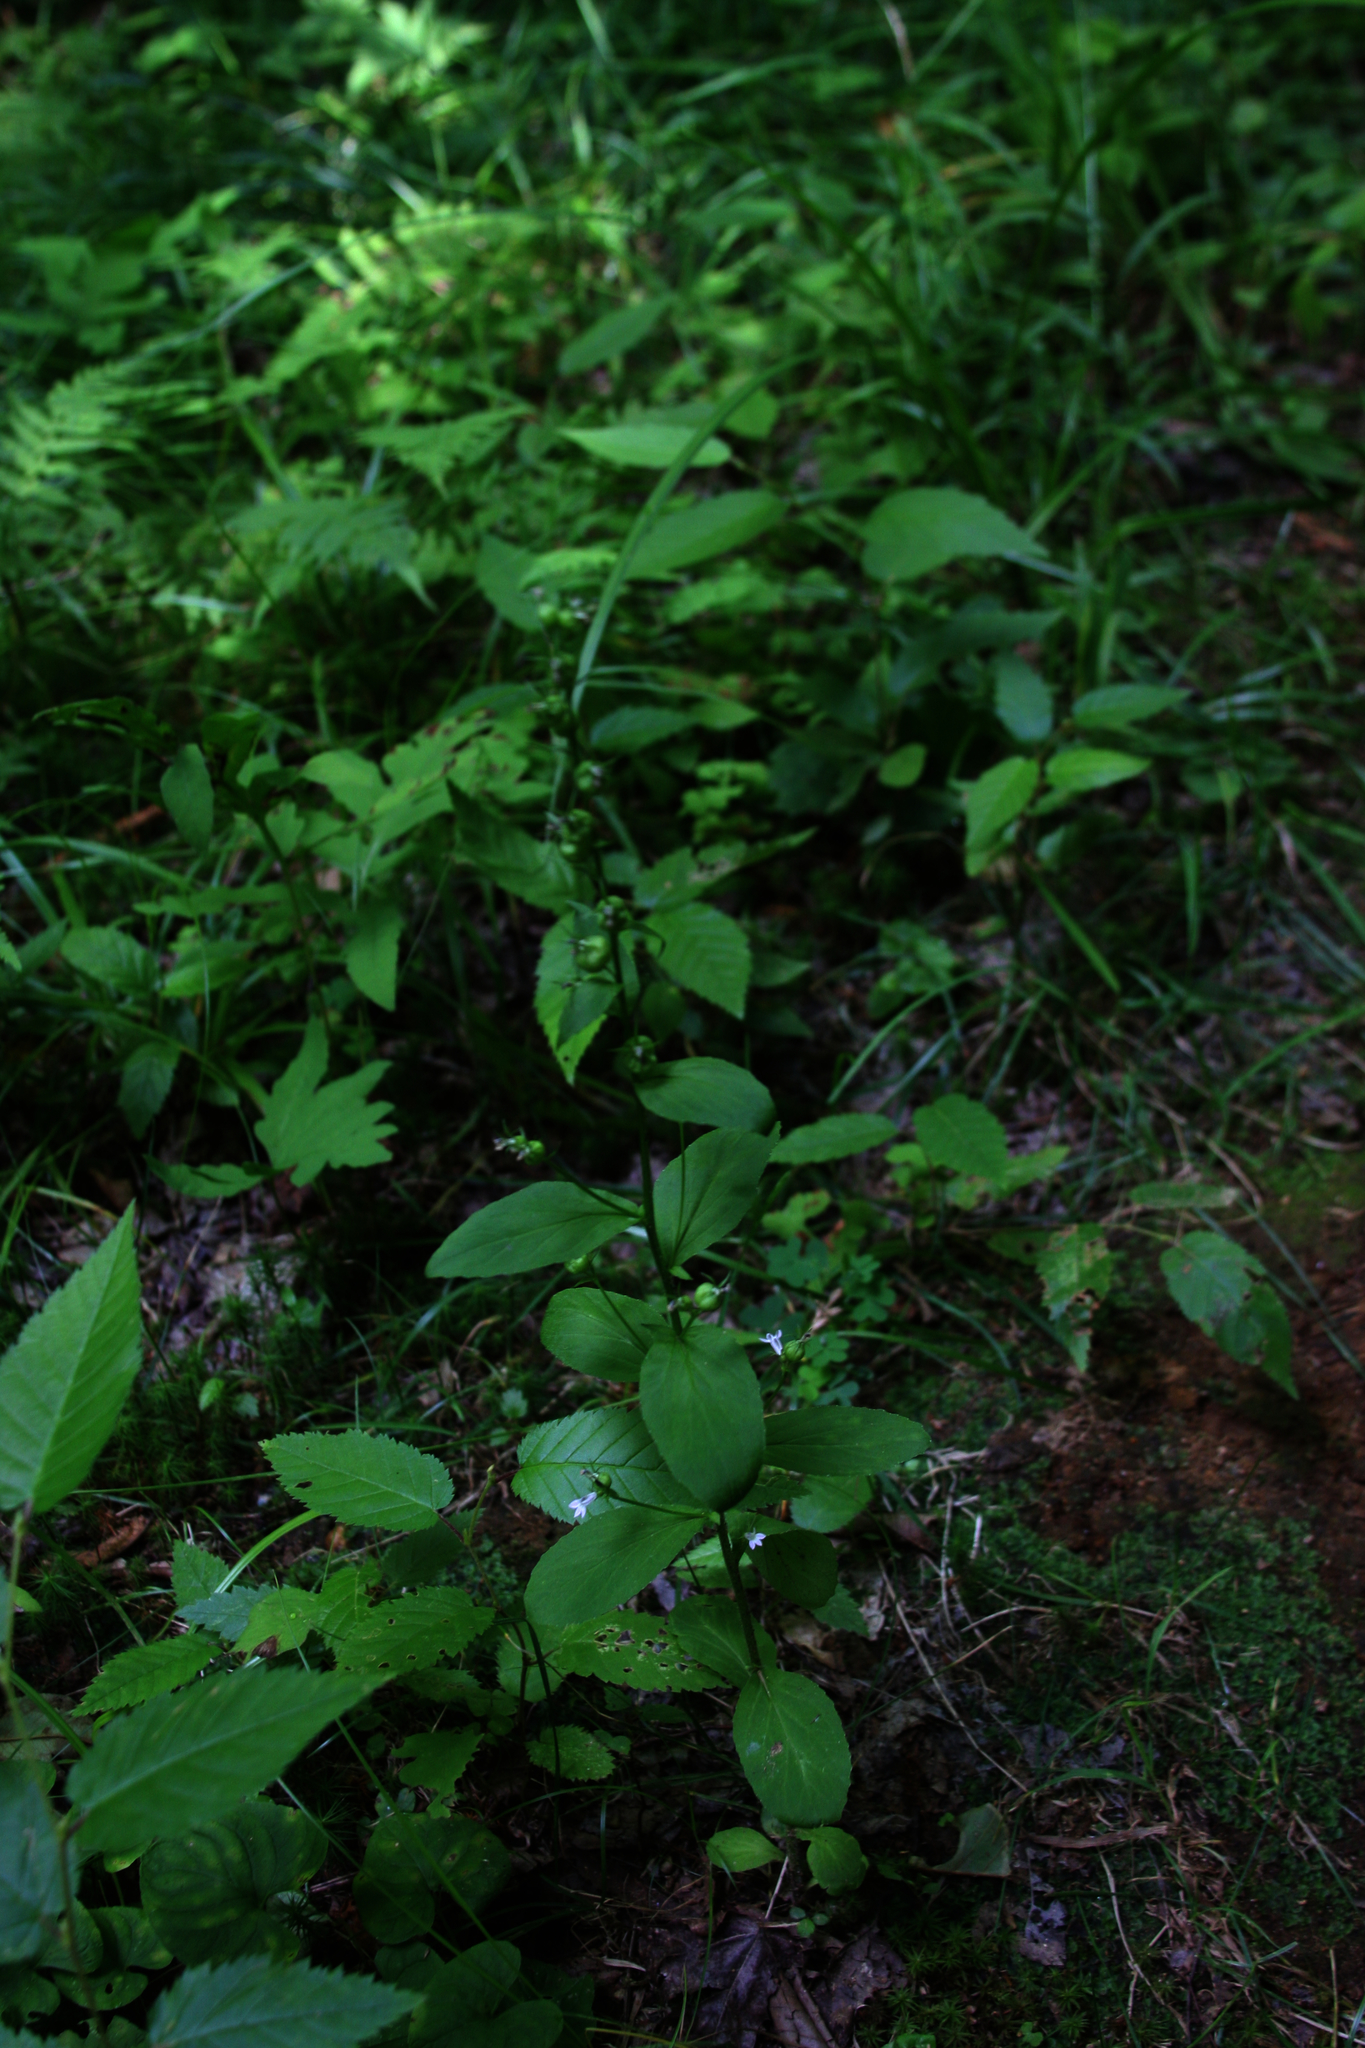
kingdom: Plantae
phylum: Tracheophyta
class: Magnoliopsida
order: Asterales
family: Campanulaceae
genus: Lobelia
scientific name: Lobelia inflata
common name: Indian tobacco
